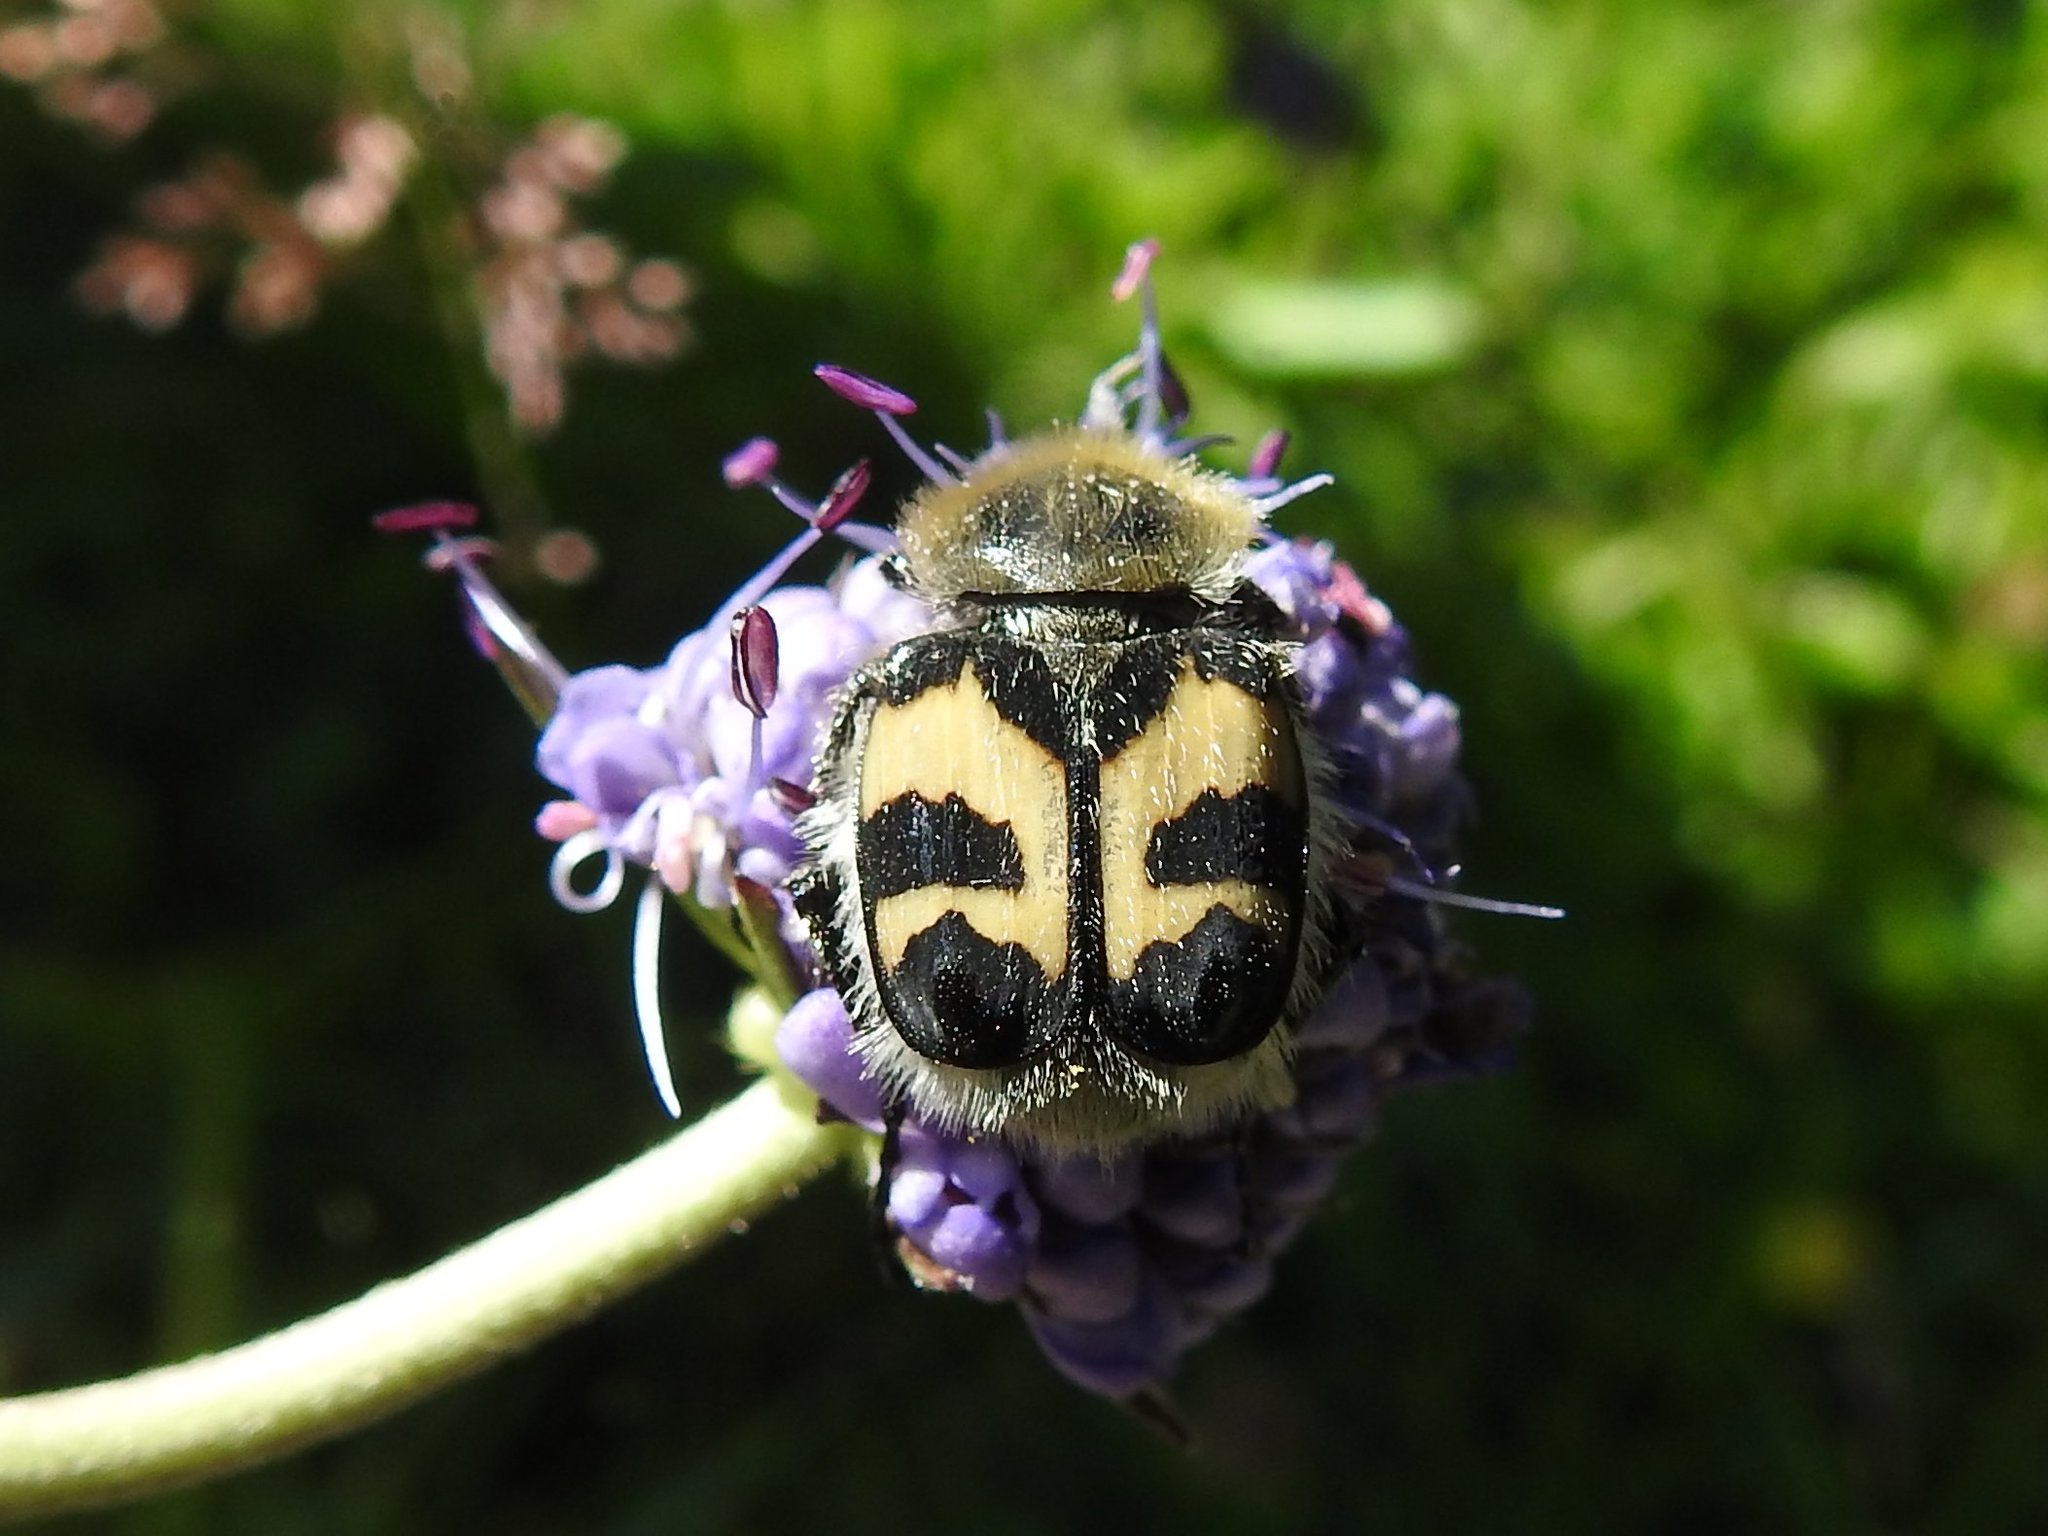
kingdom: Animalia
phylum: Arthropoda
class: Insecta
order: Coleoptera
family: Scarabaeidae
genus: Trichius
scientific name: Trichius fasciatus
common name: Bee beetle
